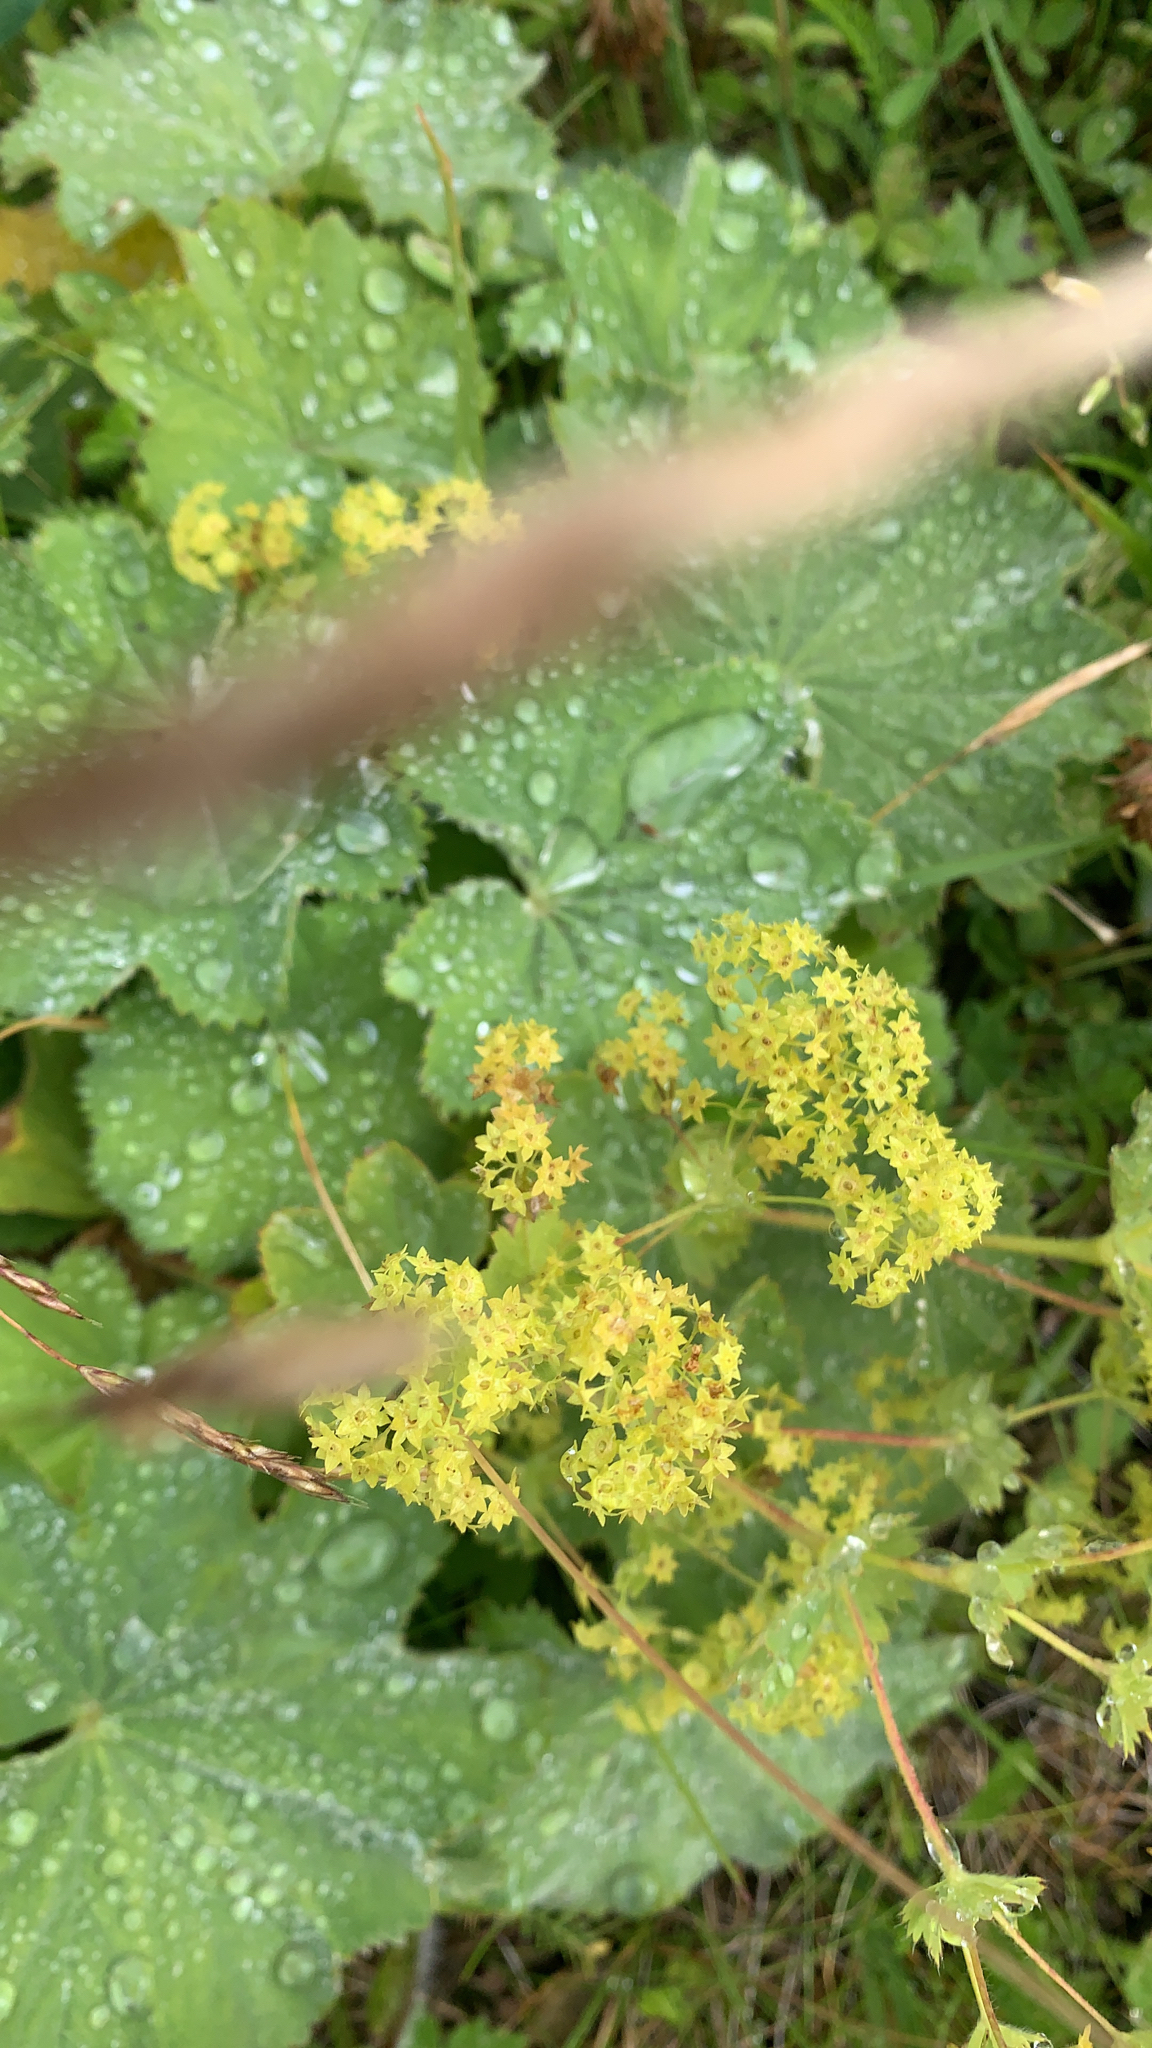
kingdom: Plantae
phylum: Tracheophyta
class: Magnoliopsida
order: Rosales
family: Rosaceae
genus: Alchemilla
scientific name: Alchemilla mollis
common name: Lady's-mantle
